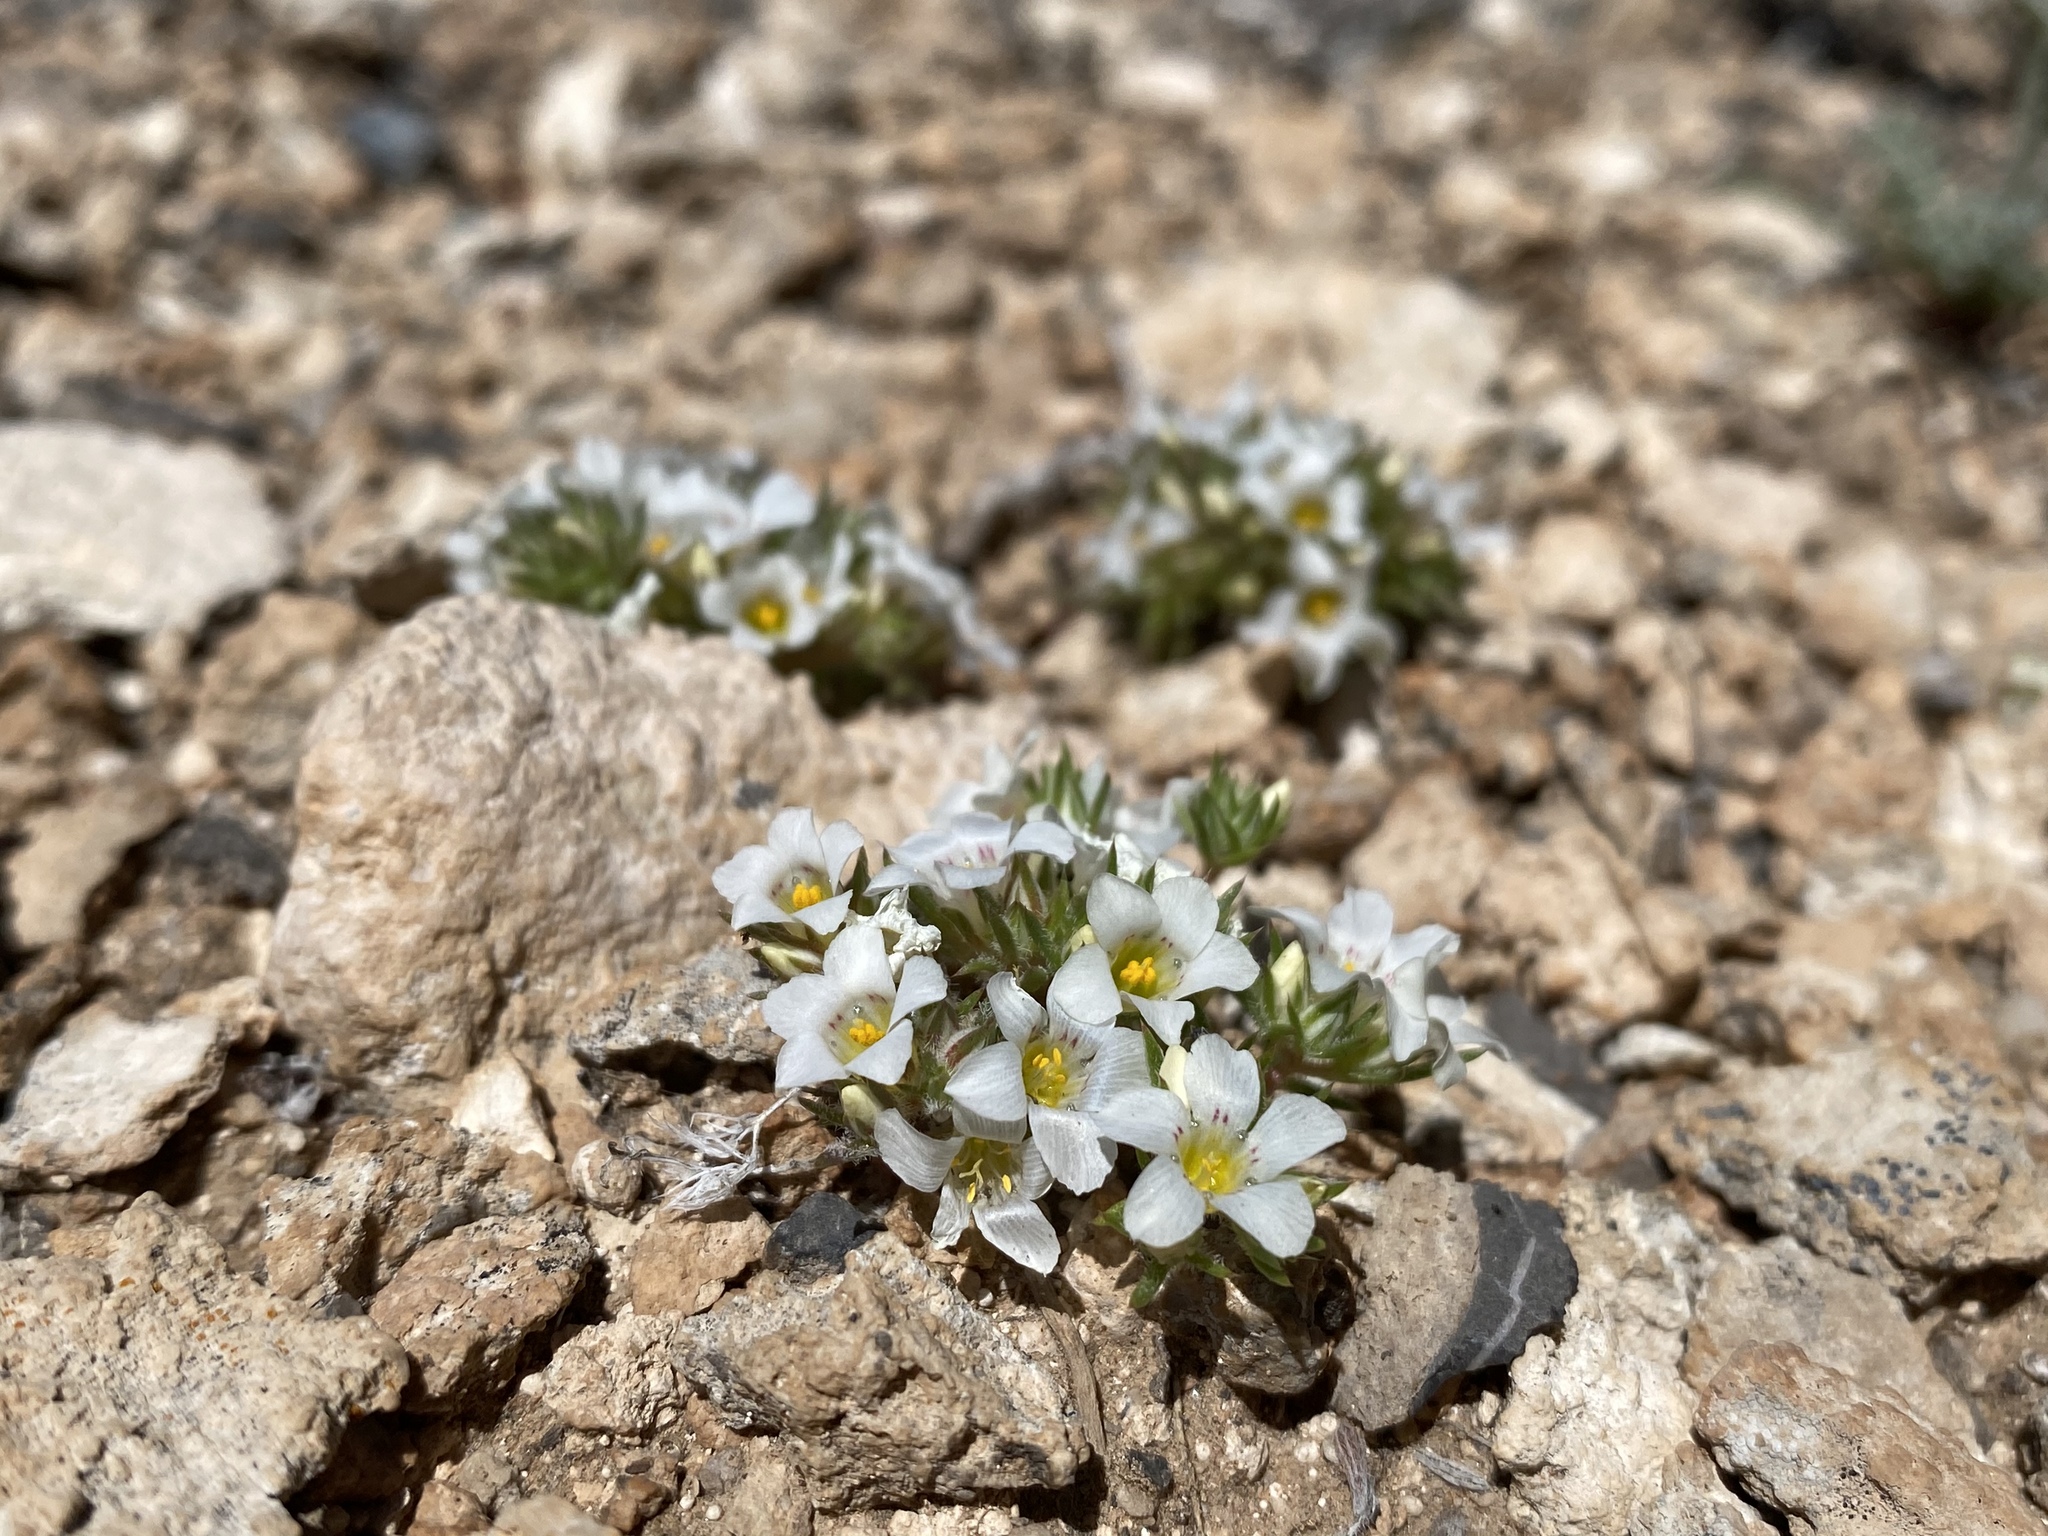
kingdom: Plantae
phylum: Tracheophyta
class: Magnoliopsida
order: Ericales
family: Polemoniaceae
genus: Linanthus
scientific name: Linanthus demissus
